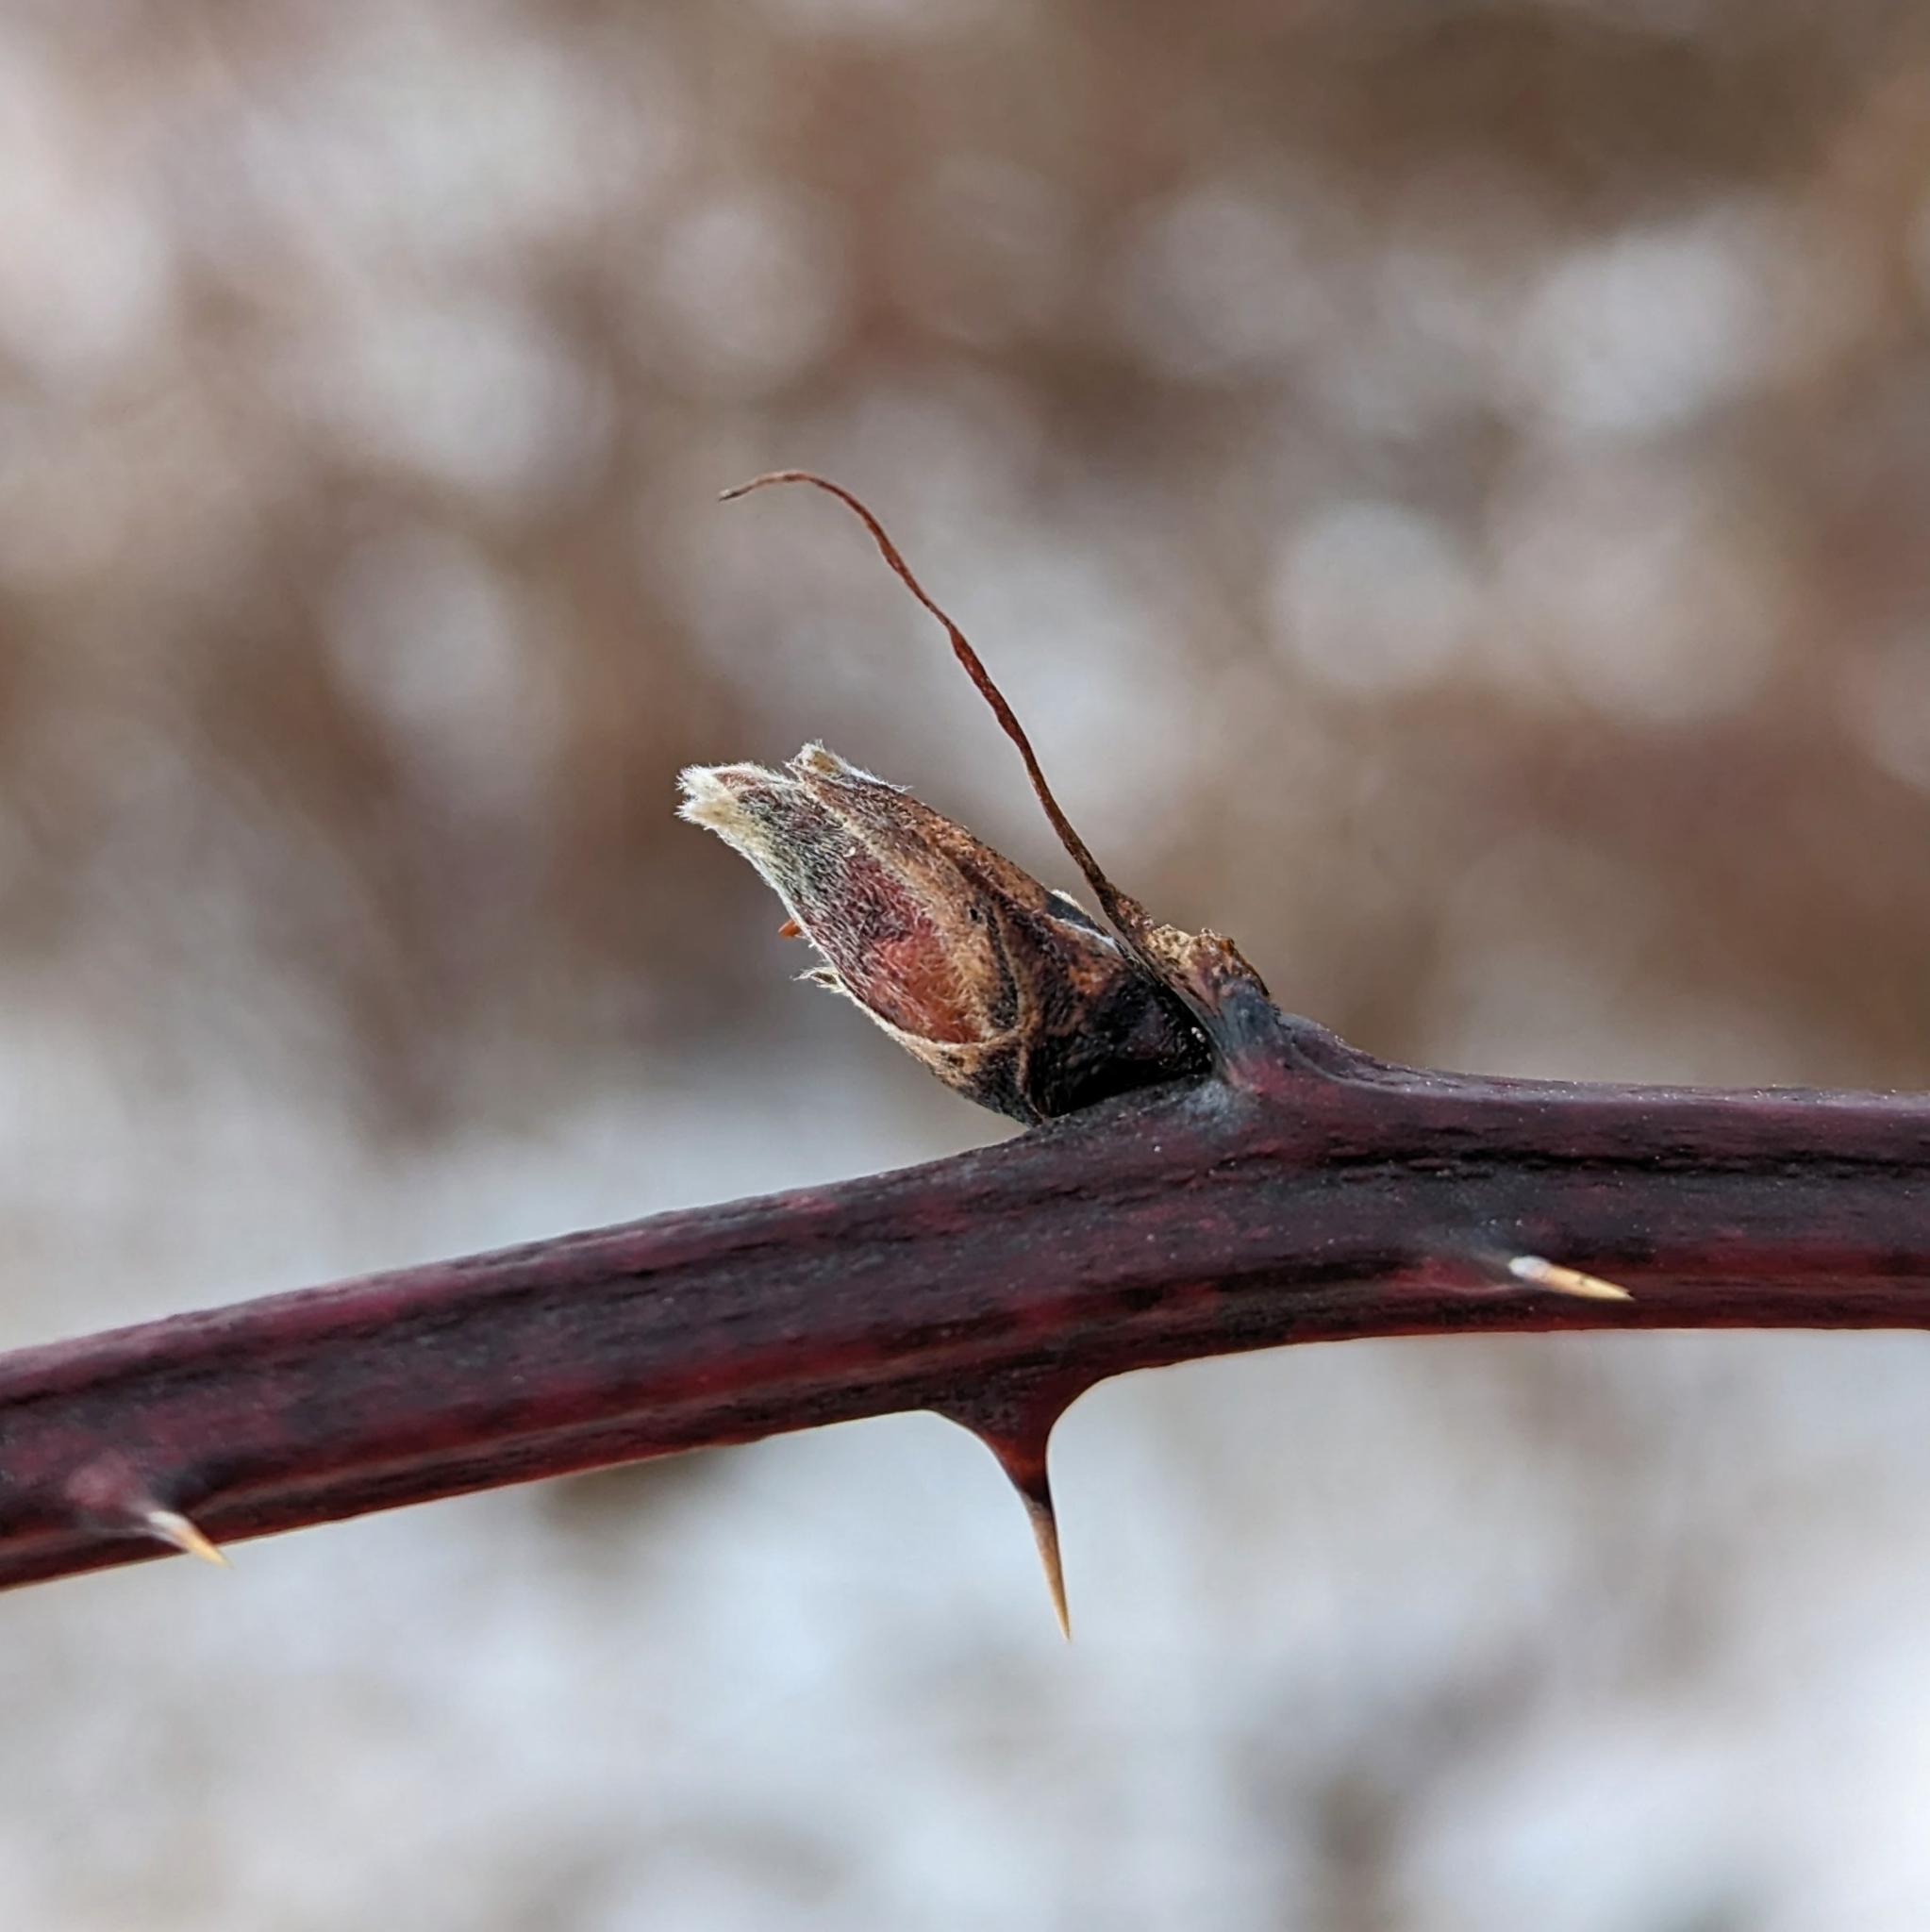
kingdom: Plantae
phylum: Tracheophyta
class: Magnoliopsida
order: Rosales
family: Rosaceae
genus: Rubus
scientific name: Rubus
